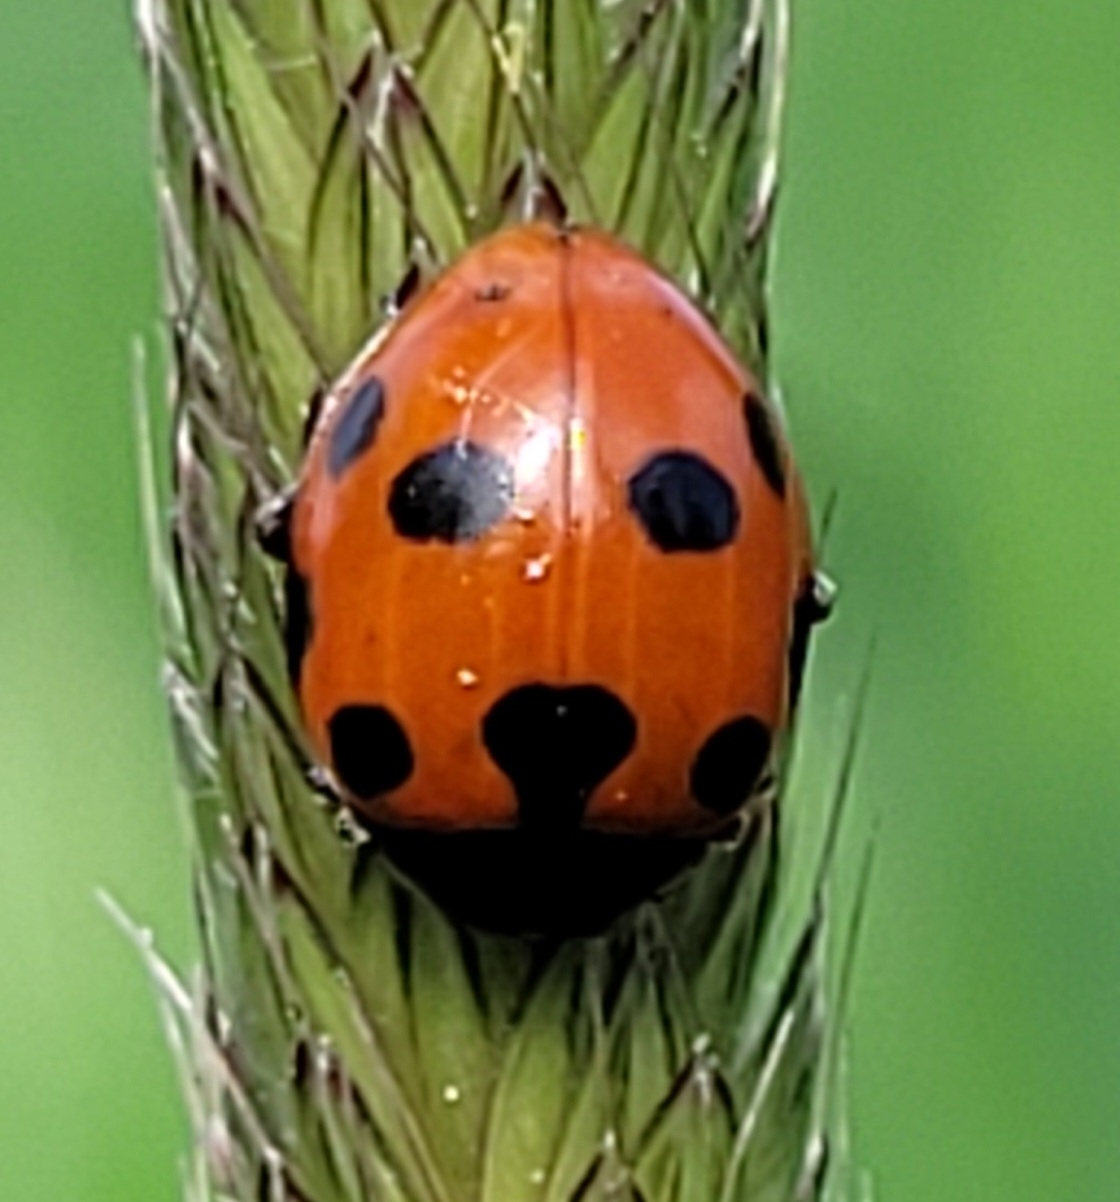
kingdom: Animalia
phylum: Arthropoda
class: Insecta
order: Coleoptera
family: Coccinellidae
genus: Ceratomegilla
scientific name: Ceratomegilla undecimnotata
